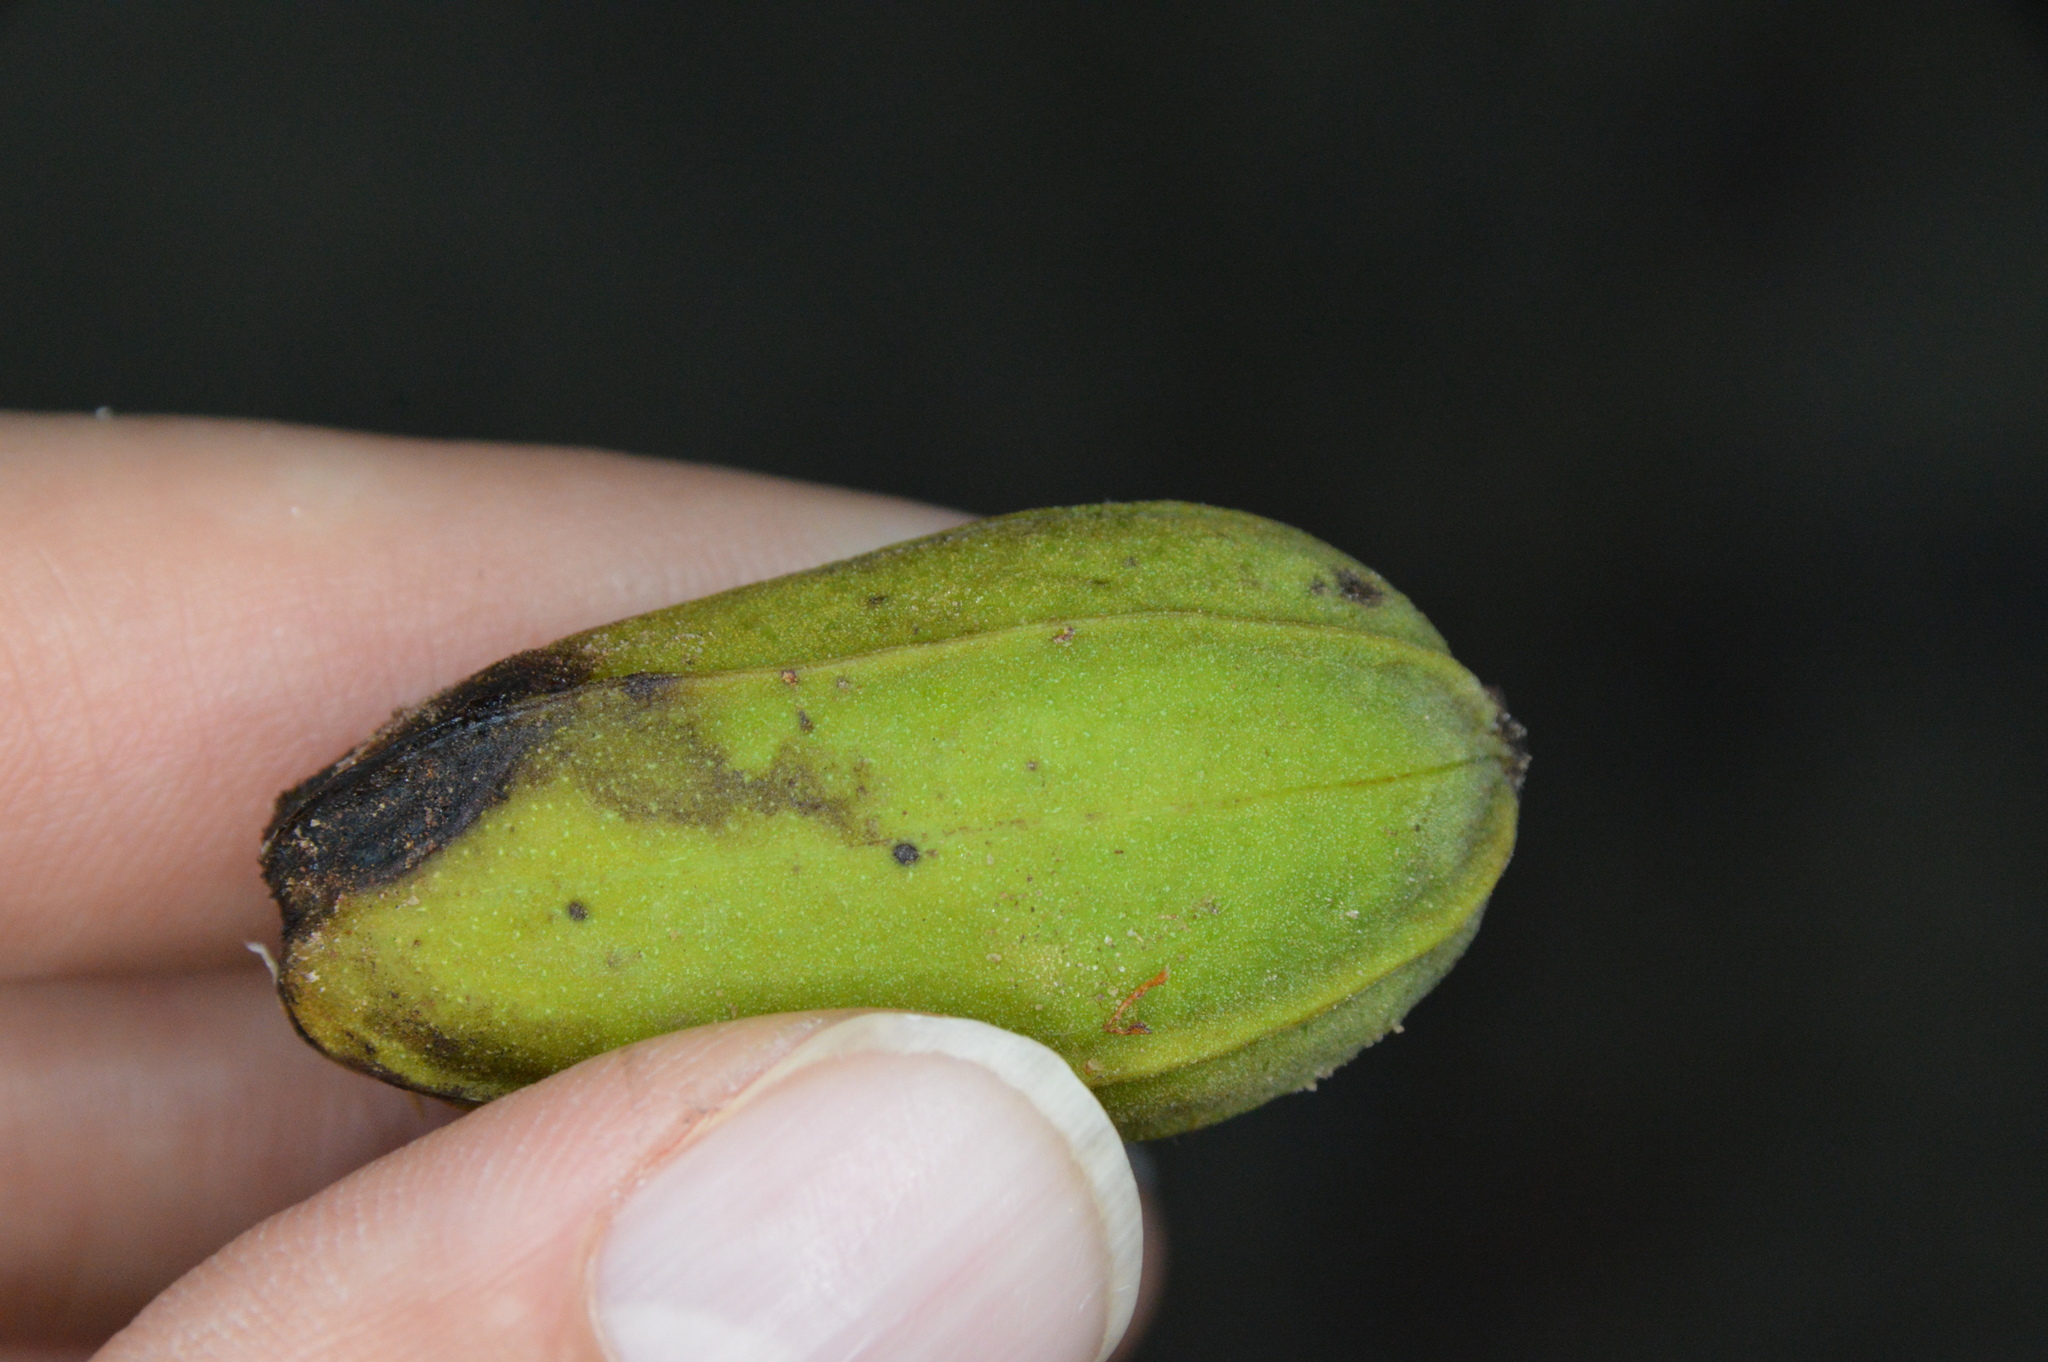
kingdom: Plantae
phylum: Tracheophyta
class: Magnoliopsida
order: Fagales
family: Juglandaceae
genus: Carya
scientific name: Carya illinoinensis
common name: Pecan
